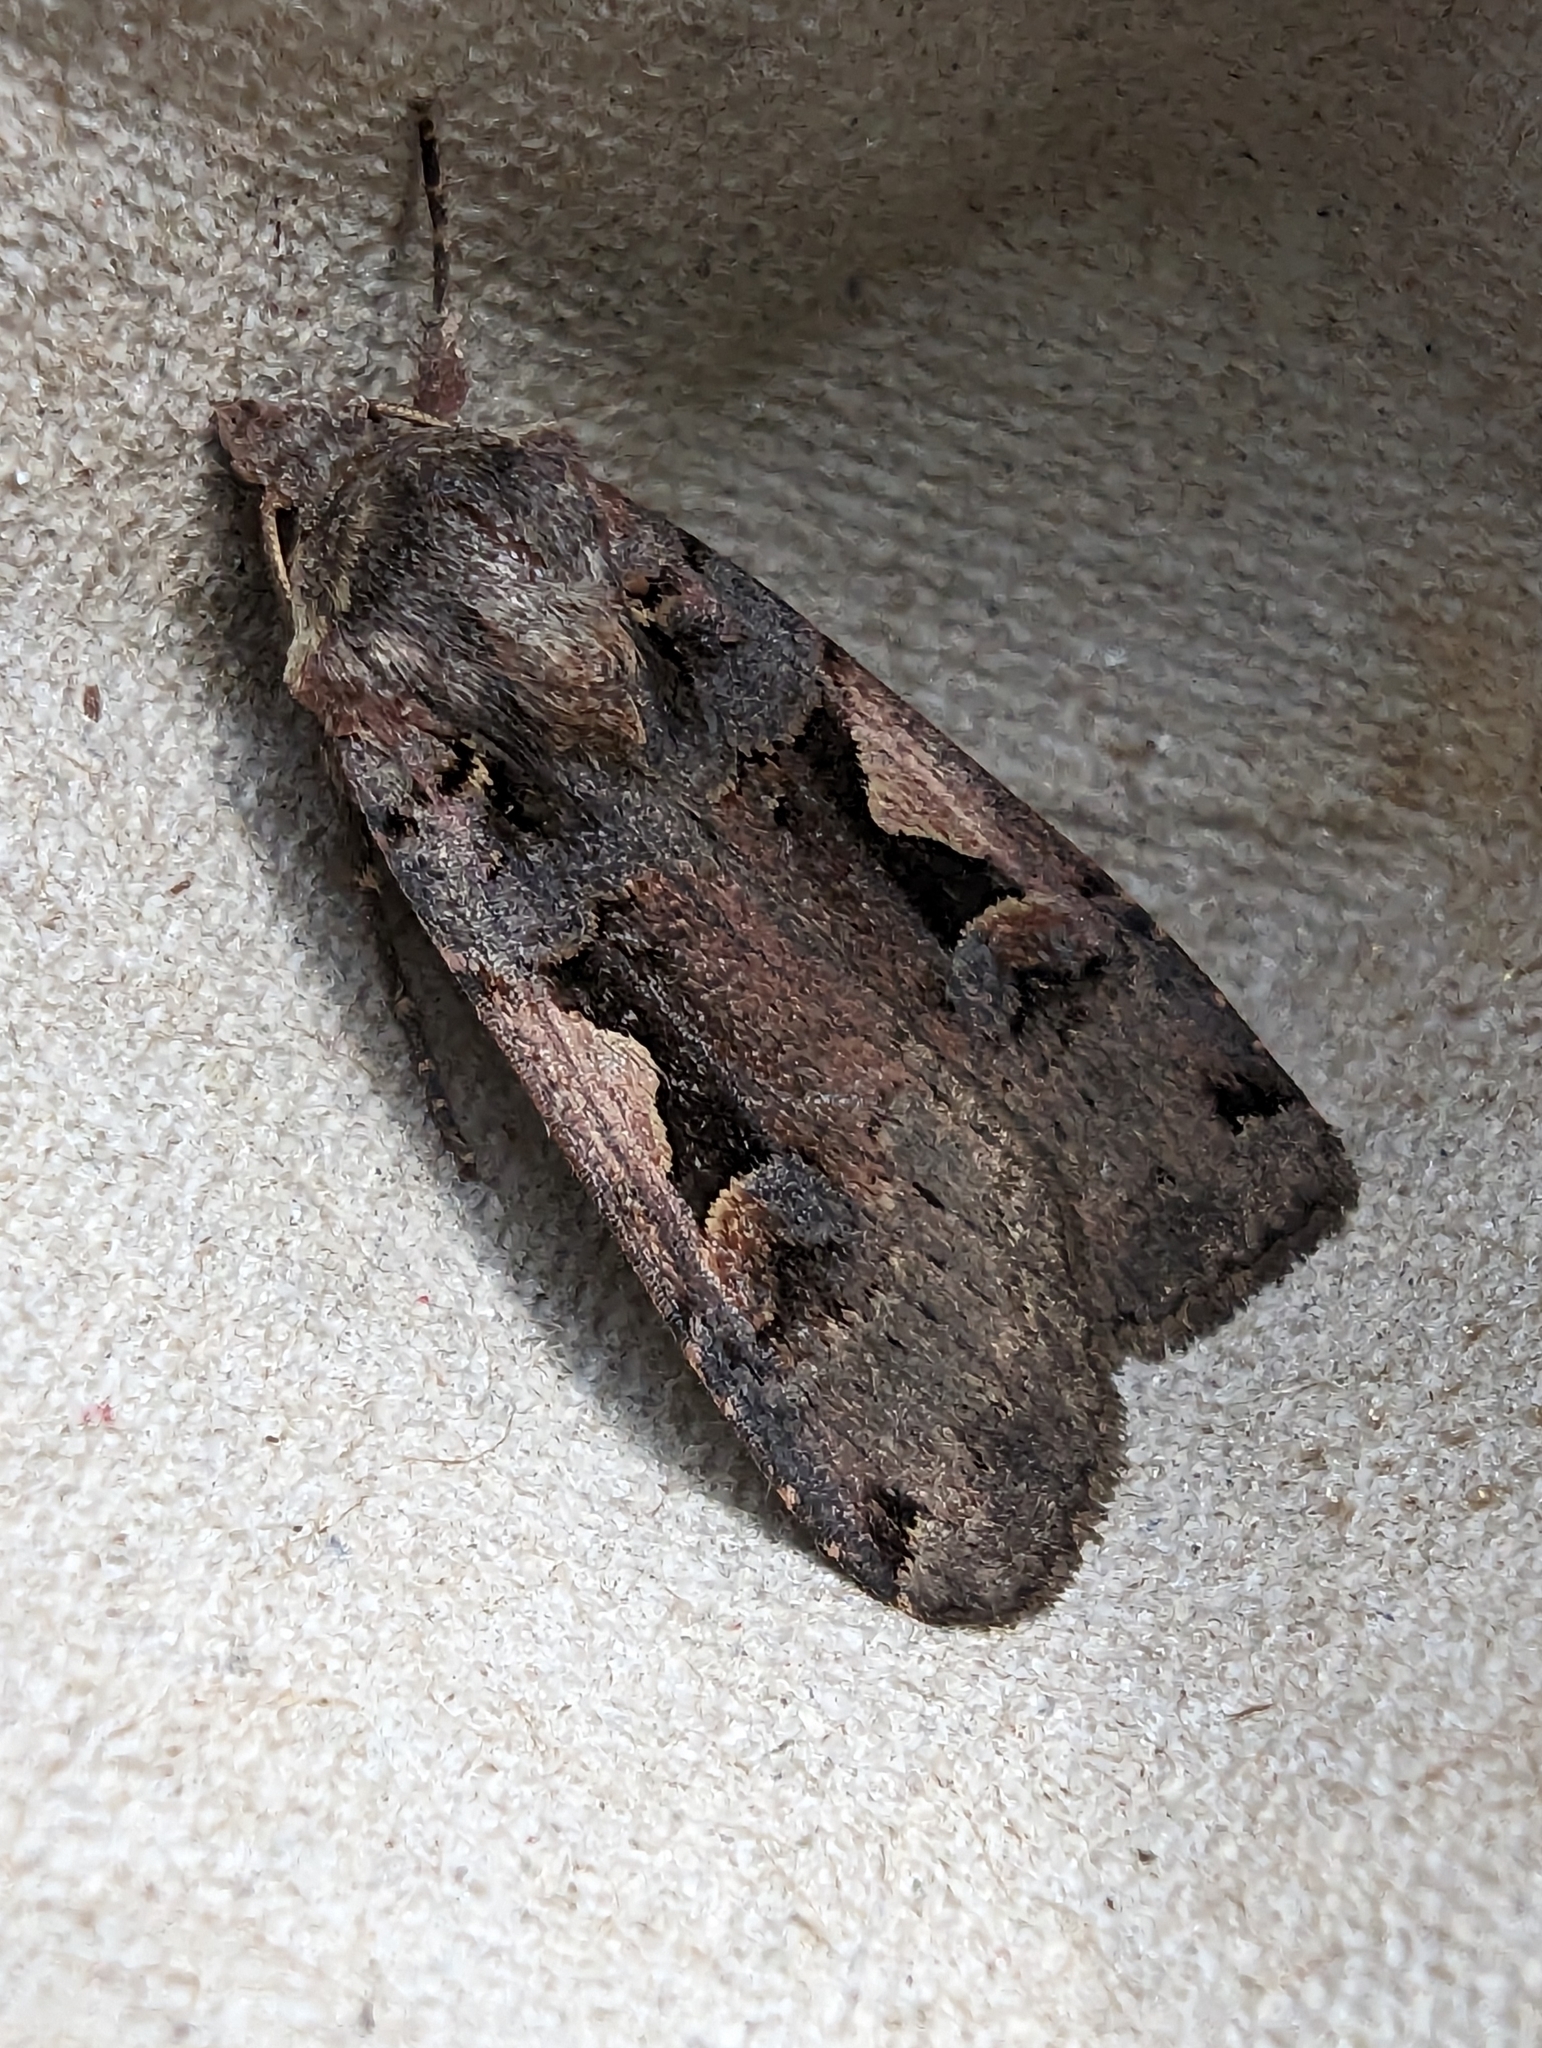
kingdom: Animalia
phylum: Arthropoda
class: Insecta
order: Lepidoptera
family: Noctuidae
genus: Xestia
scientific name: Xestia c-nigrum
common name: Setaceous hebrew character
